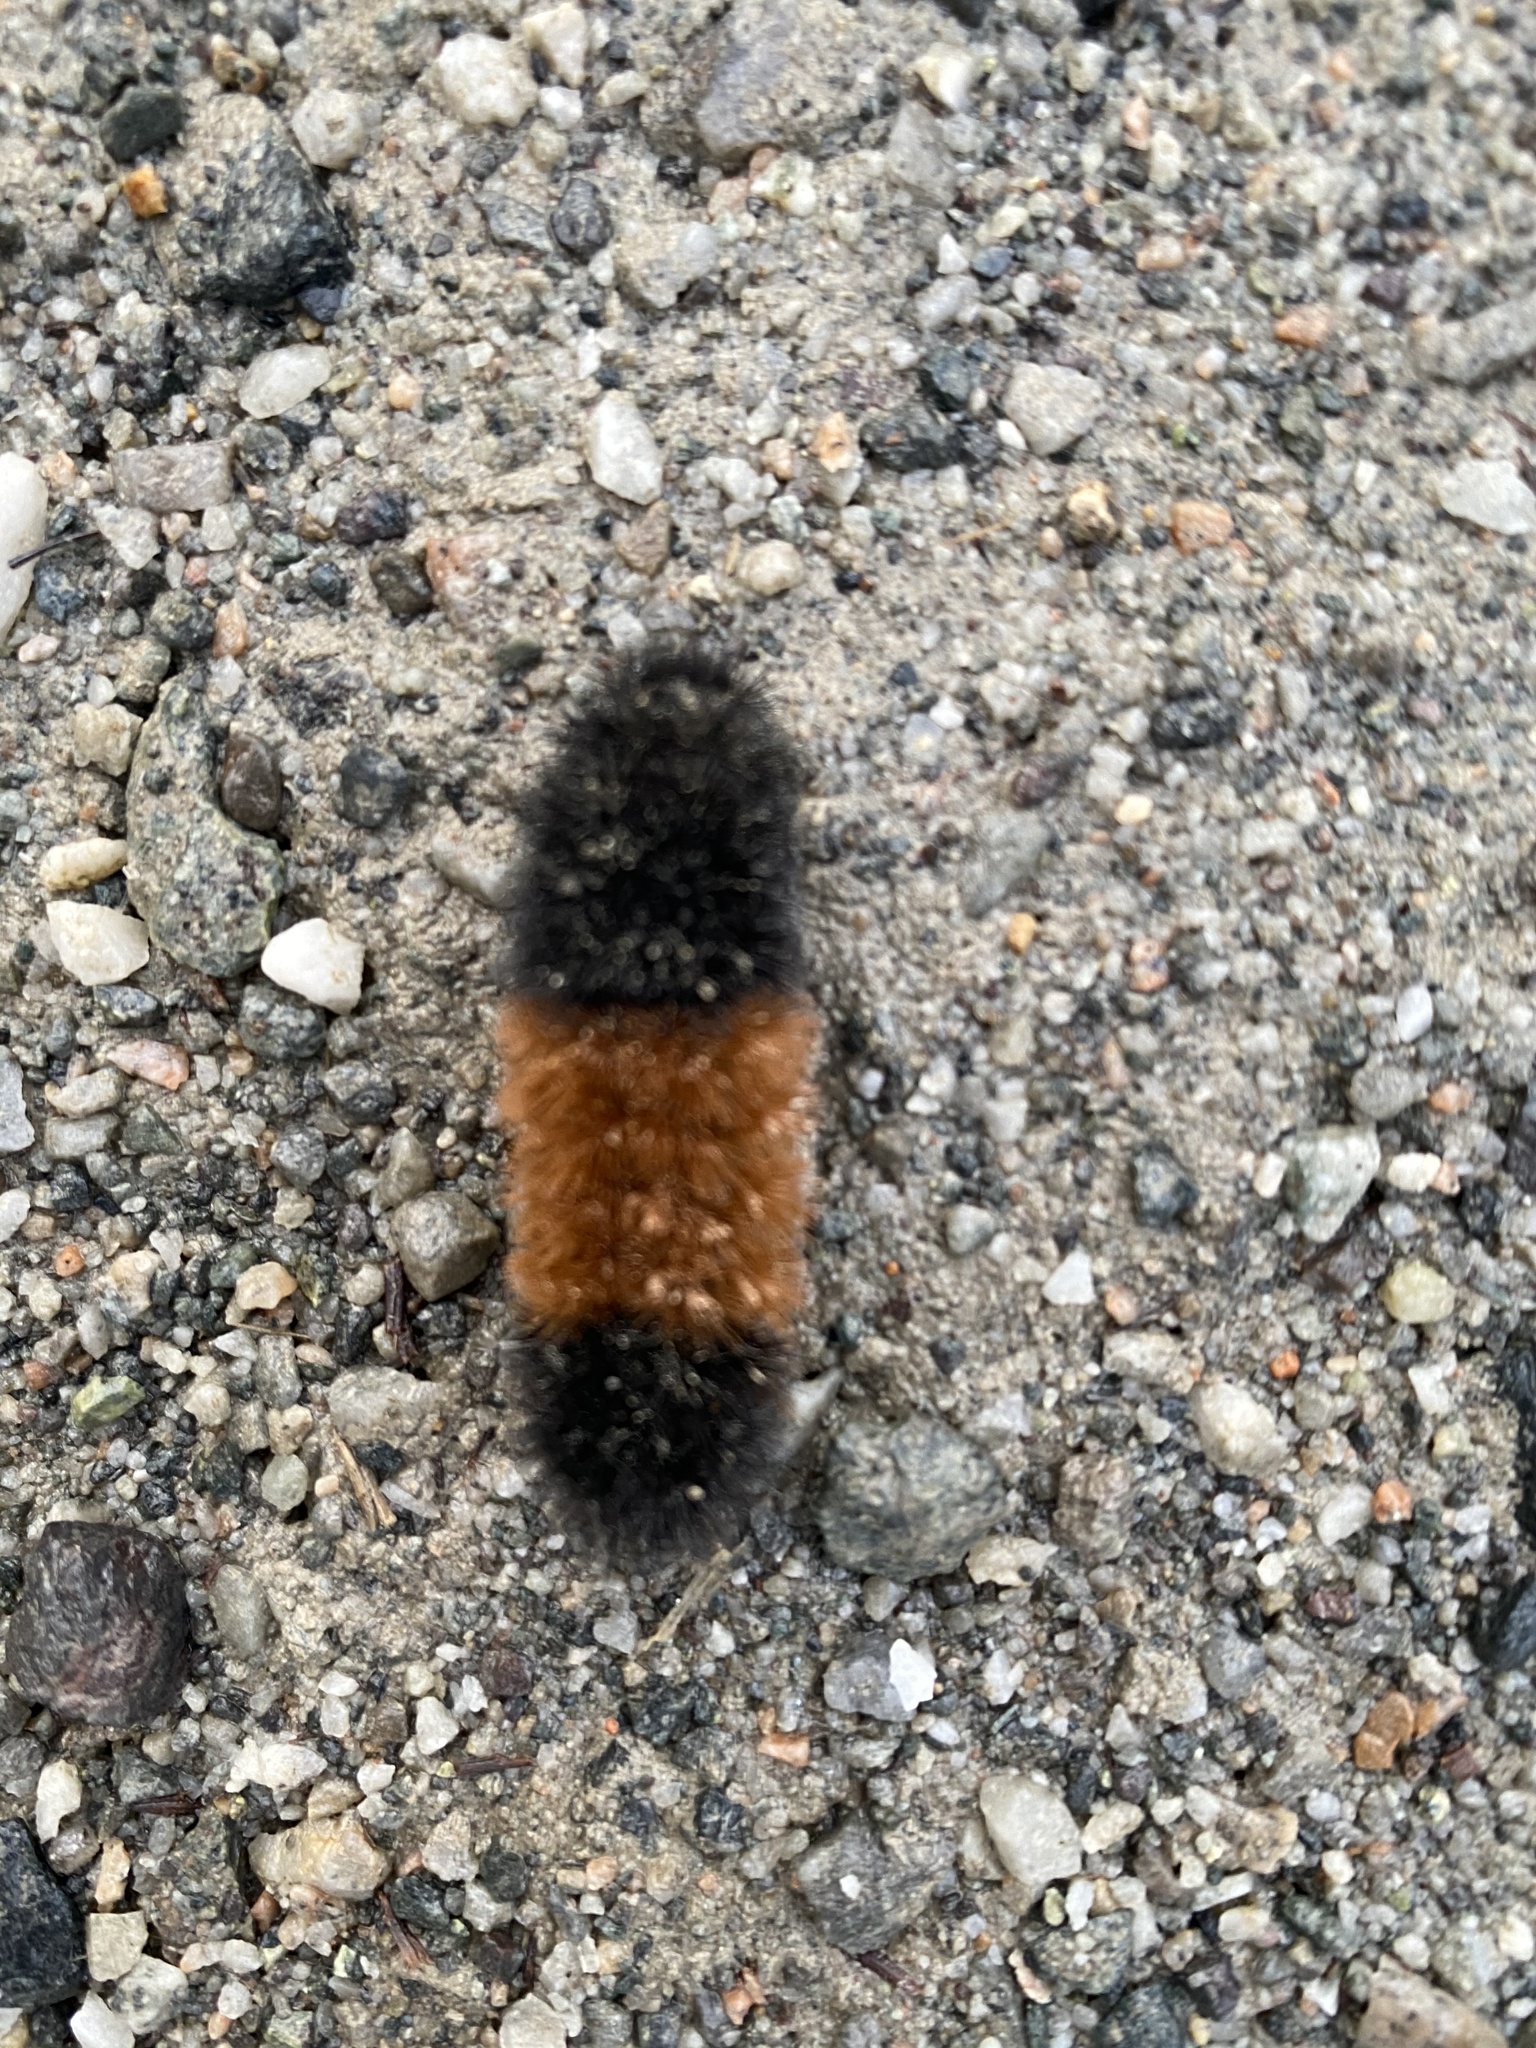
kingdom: Animalia
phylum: Arthropoda
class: Insecta
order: Lepidoptera
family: Erebidae
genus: Pyrrharctia
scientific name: Pyrrharctia isabella
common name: Isabella tiger moth
